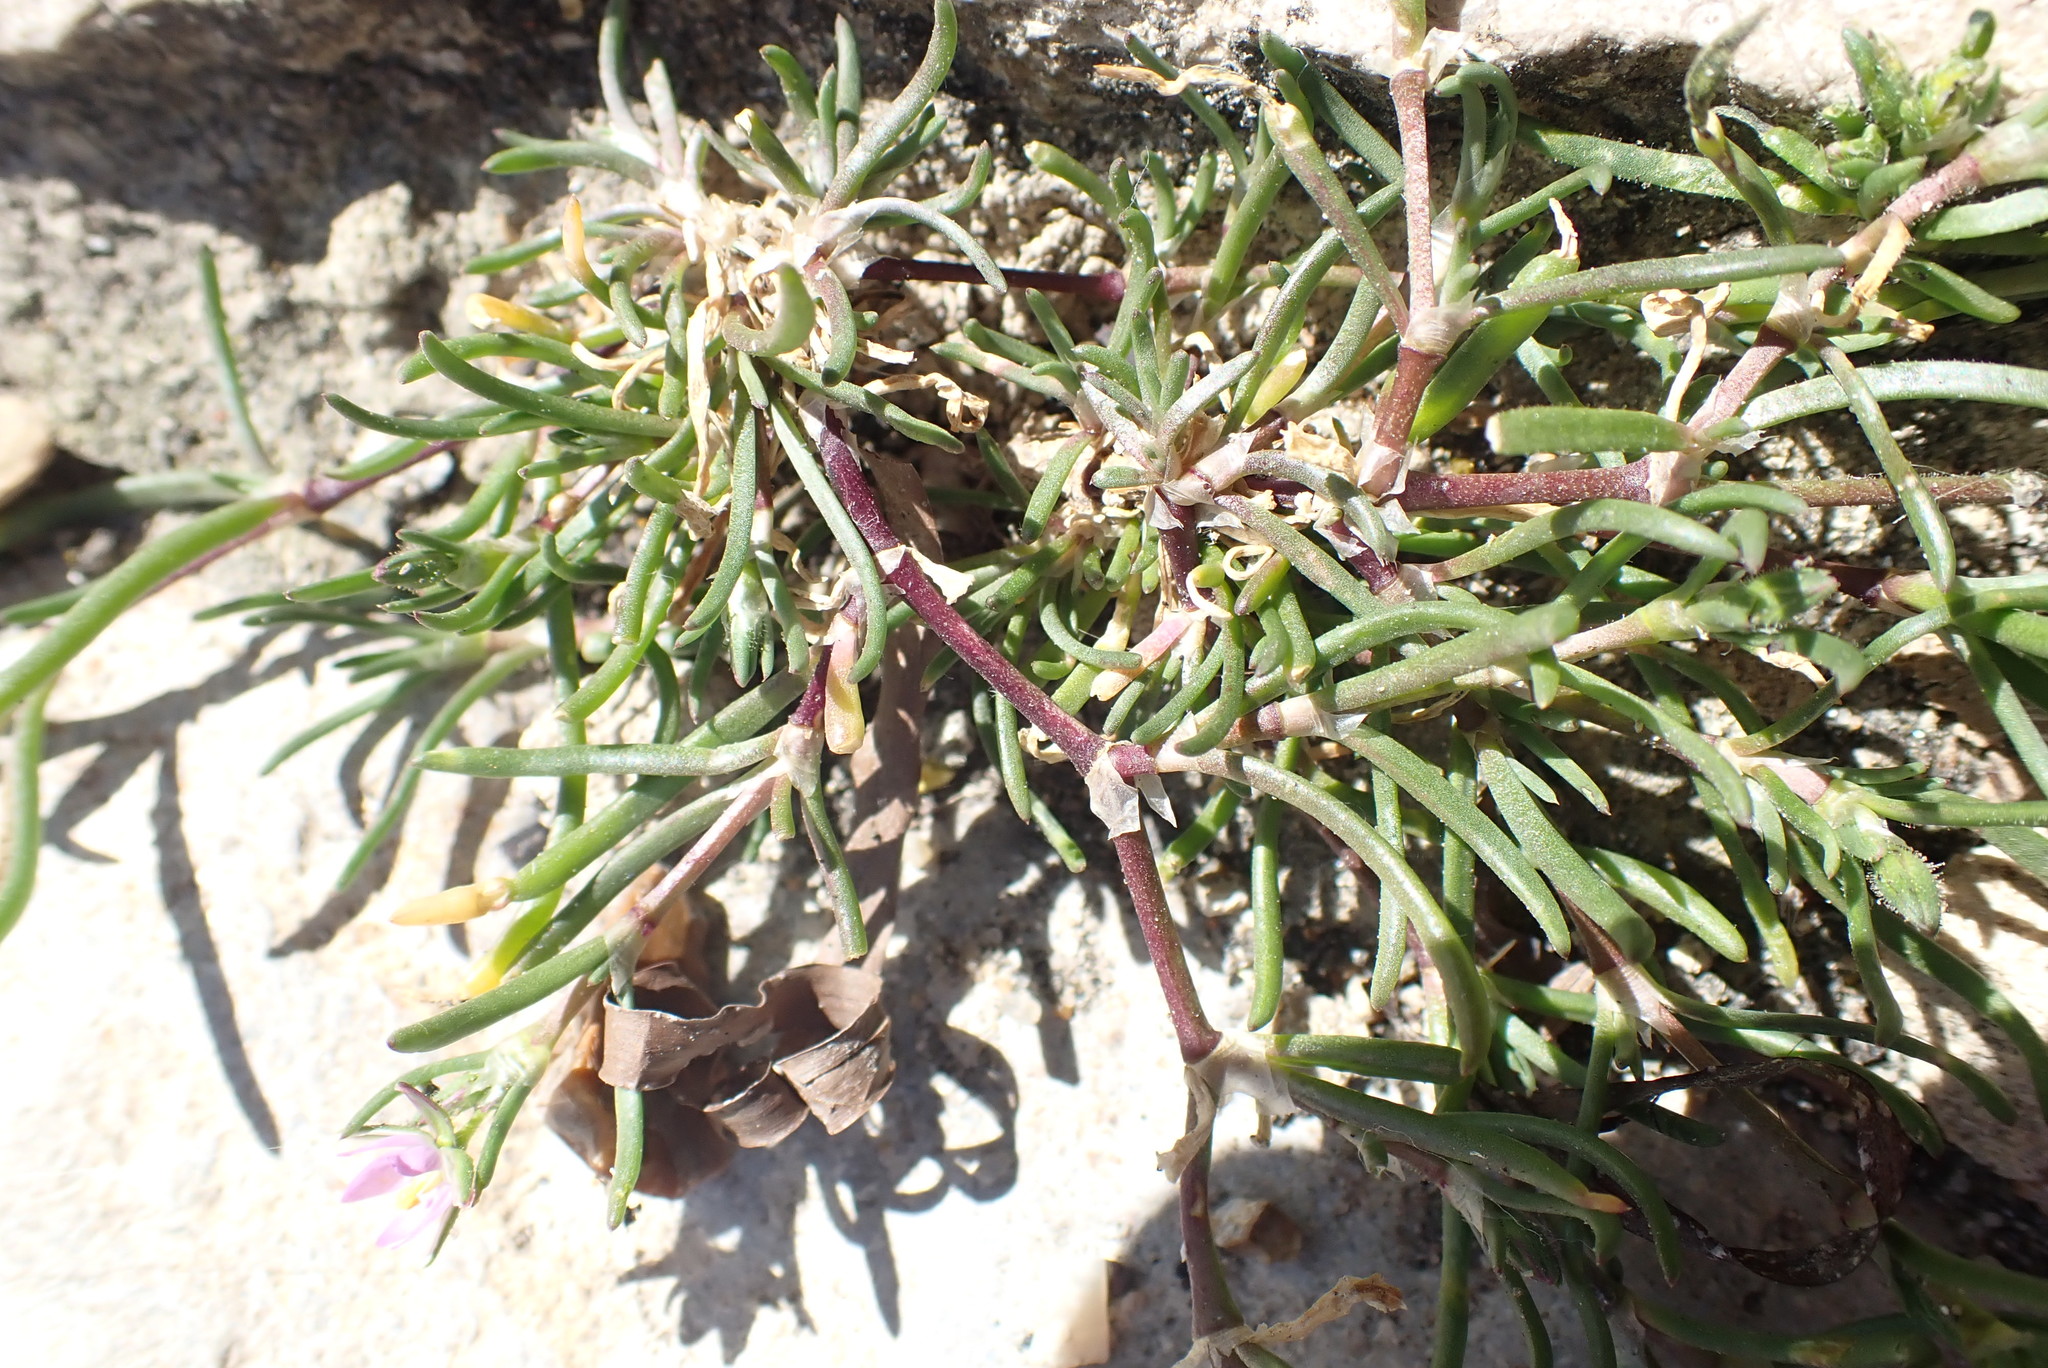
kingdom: Plantae
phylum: Tracheophyta
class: Magnoliopsida
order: Caryophyllales
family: Caryophyllaceae
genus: Spergularia
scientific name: Spergularia marina
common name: Lesser sea-spurrey
